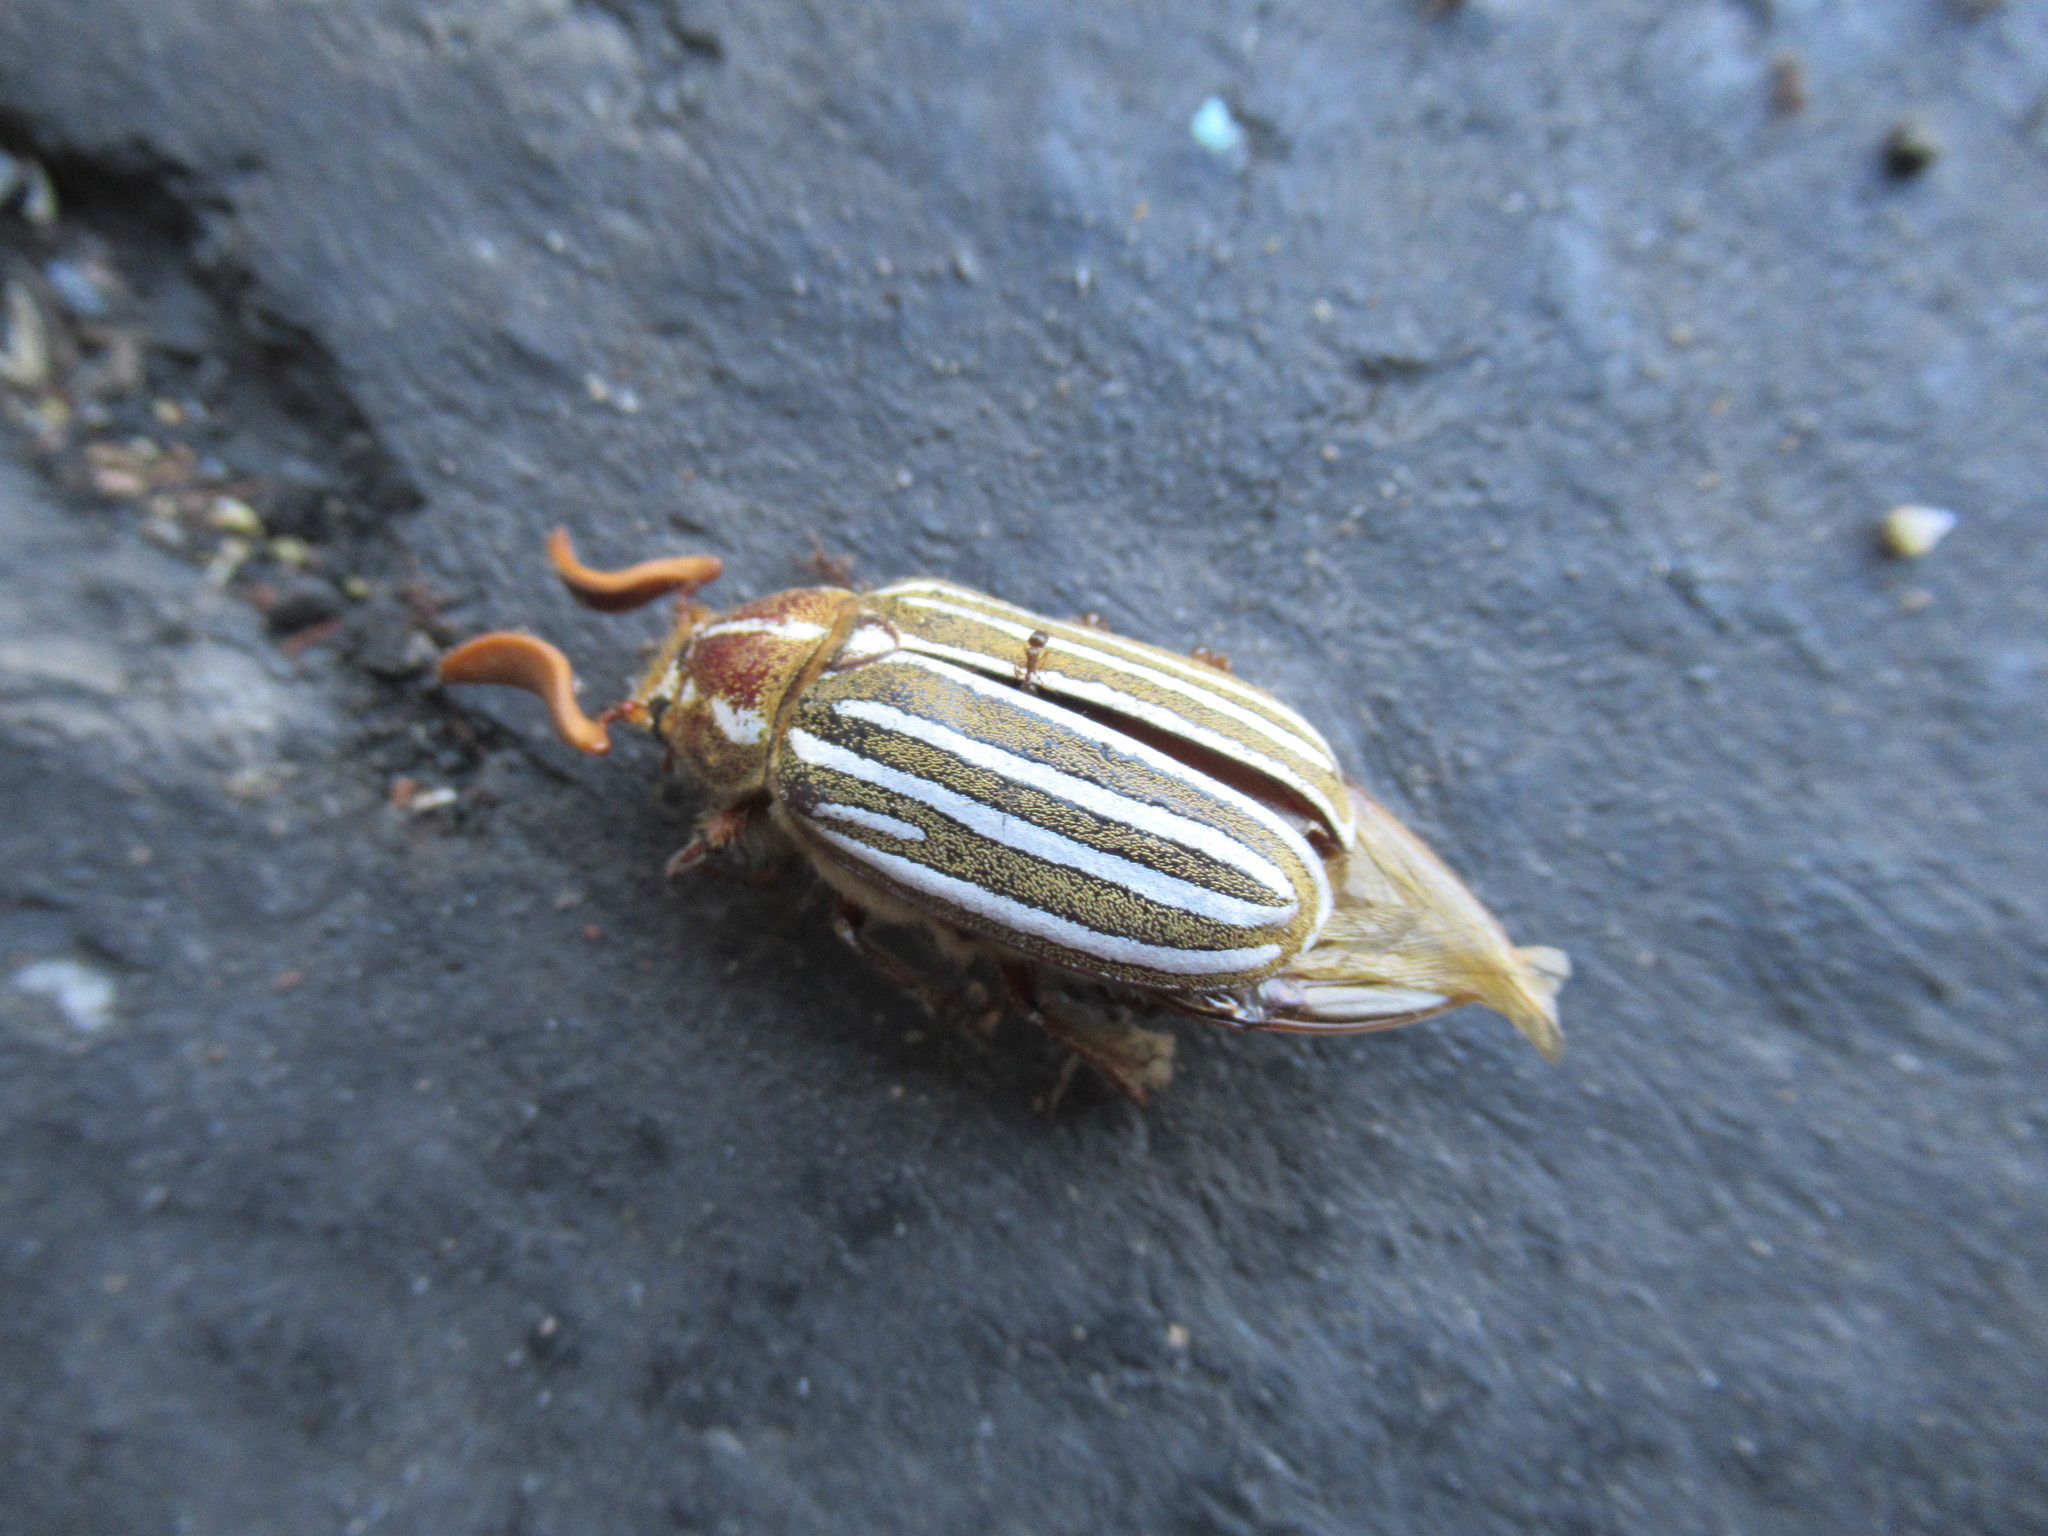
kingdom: Animalia
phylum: Arthropoda
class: Insecta
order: Coleoptera
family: Scarabaeidae
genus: Polyphylla
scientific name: Polyphylla decemlineata
